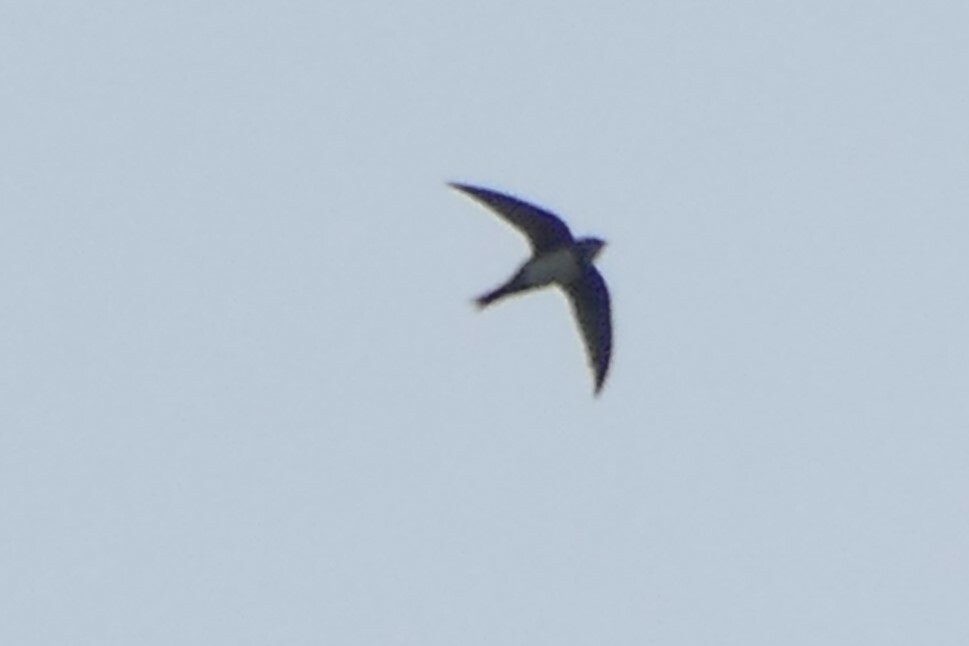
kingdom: Animalia
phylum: Chordata
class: Aves
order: Apodiformes
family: Apodidae
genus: Tachymarptis
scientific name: Tachymarptis melba
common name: Alpine swift
